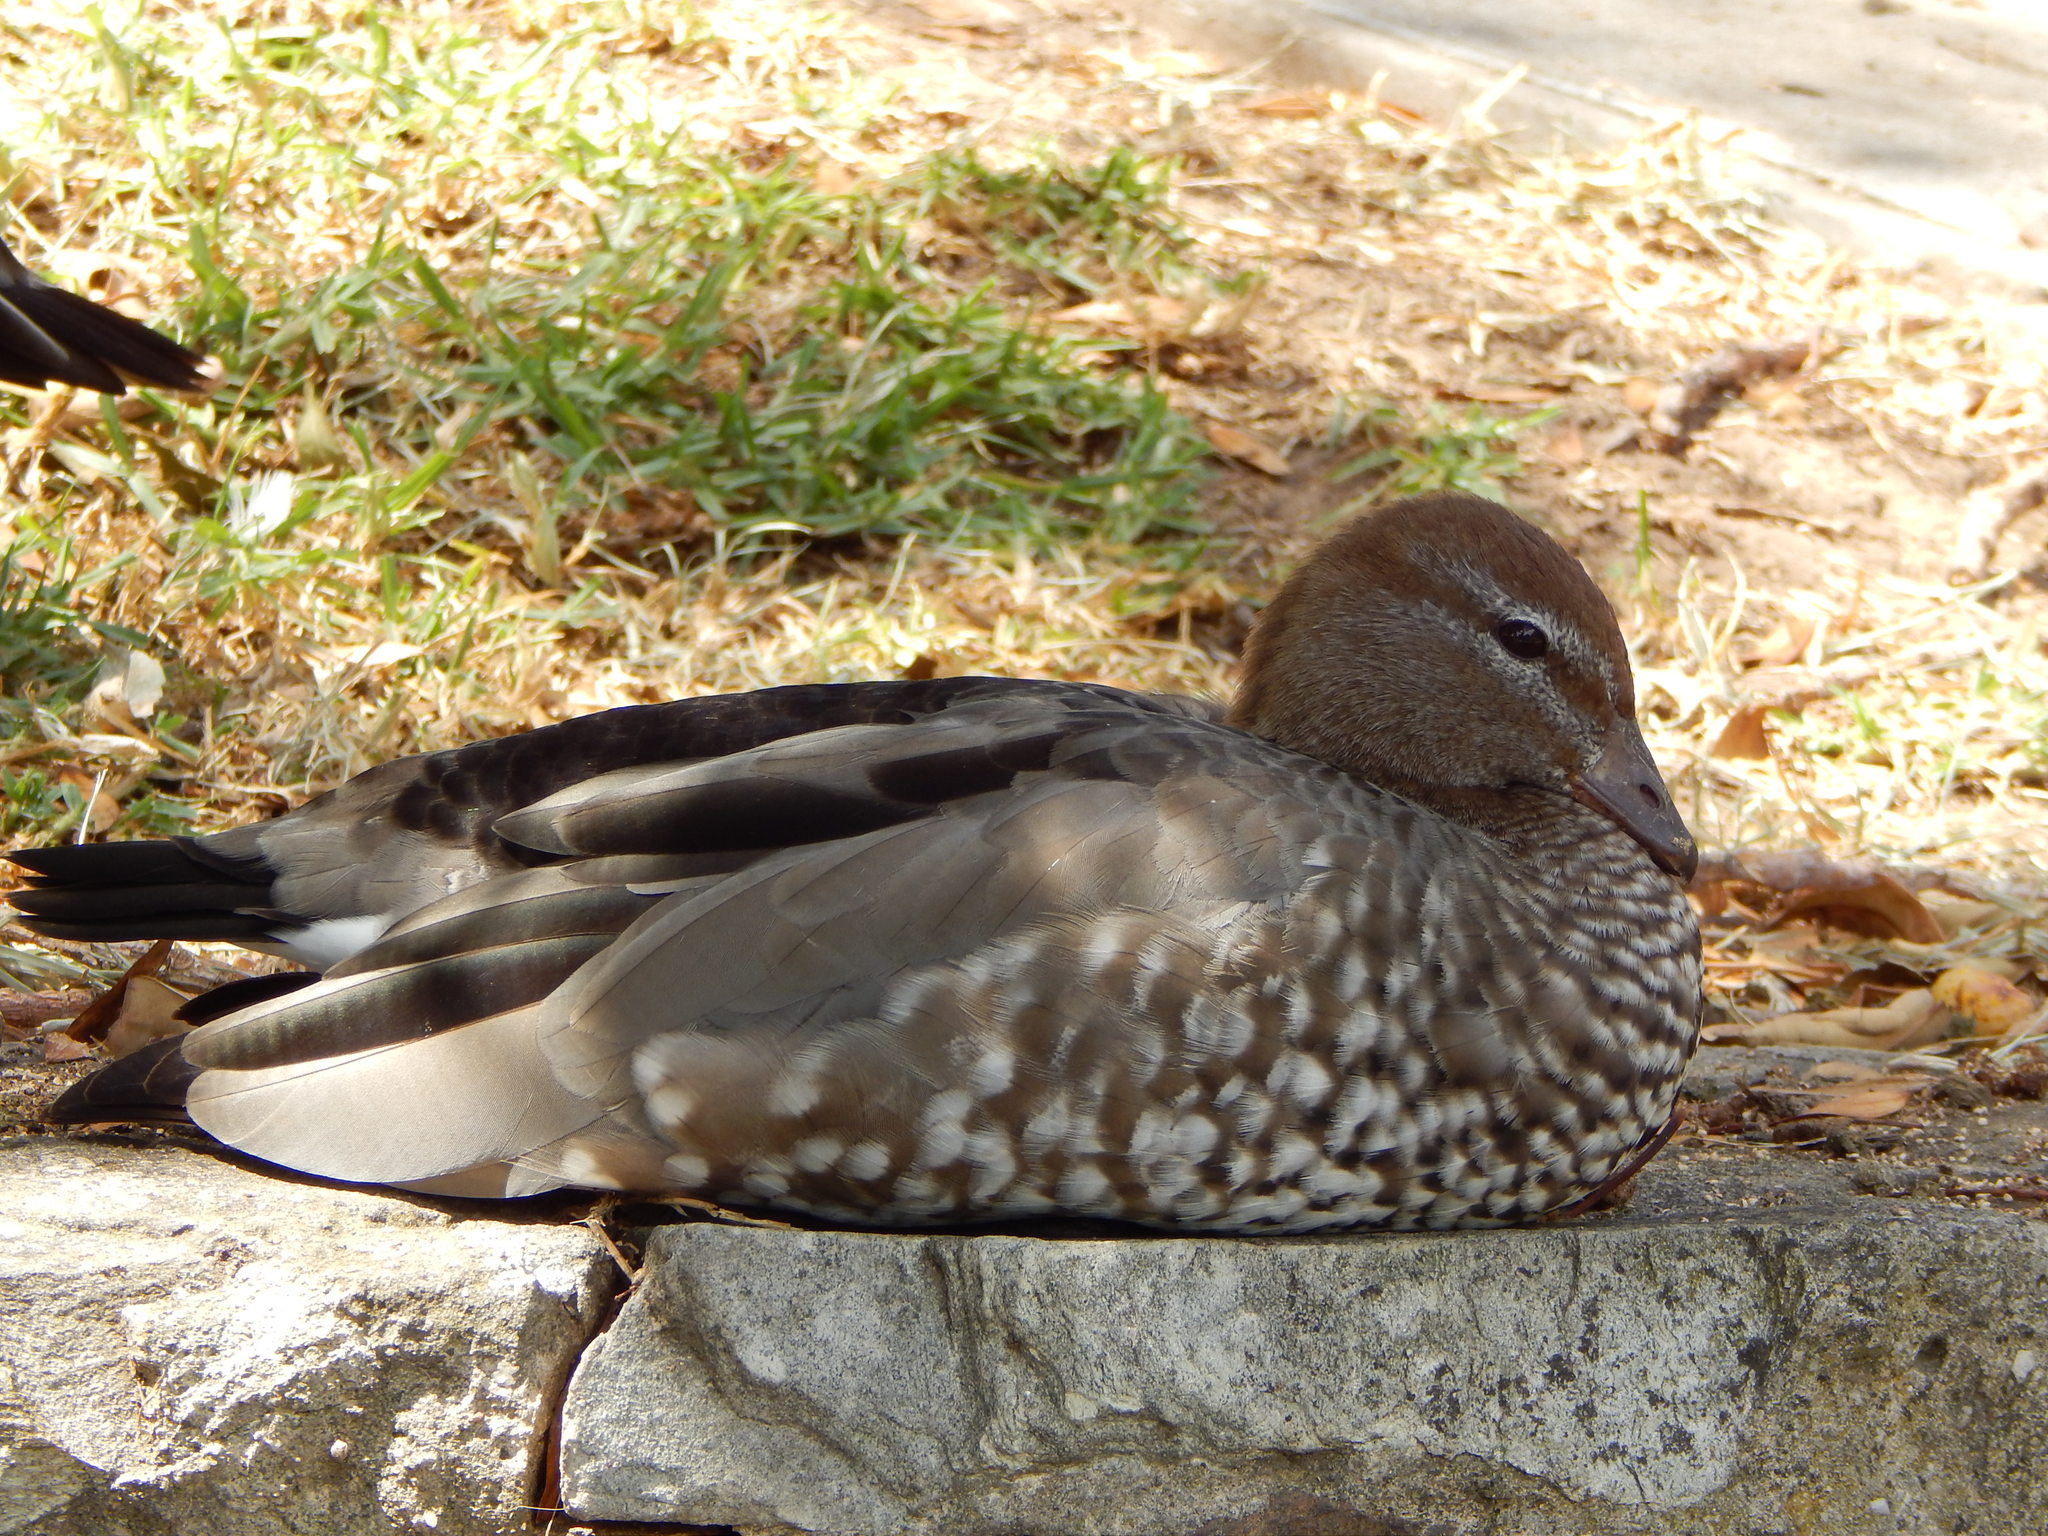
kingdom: Animalia
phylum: Chordata
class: Aves
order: Anseriformes
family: Anatidae
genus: Chenonetta
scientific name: Chenonetta jubata
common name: Maned duck
